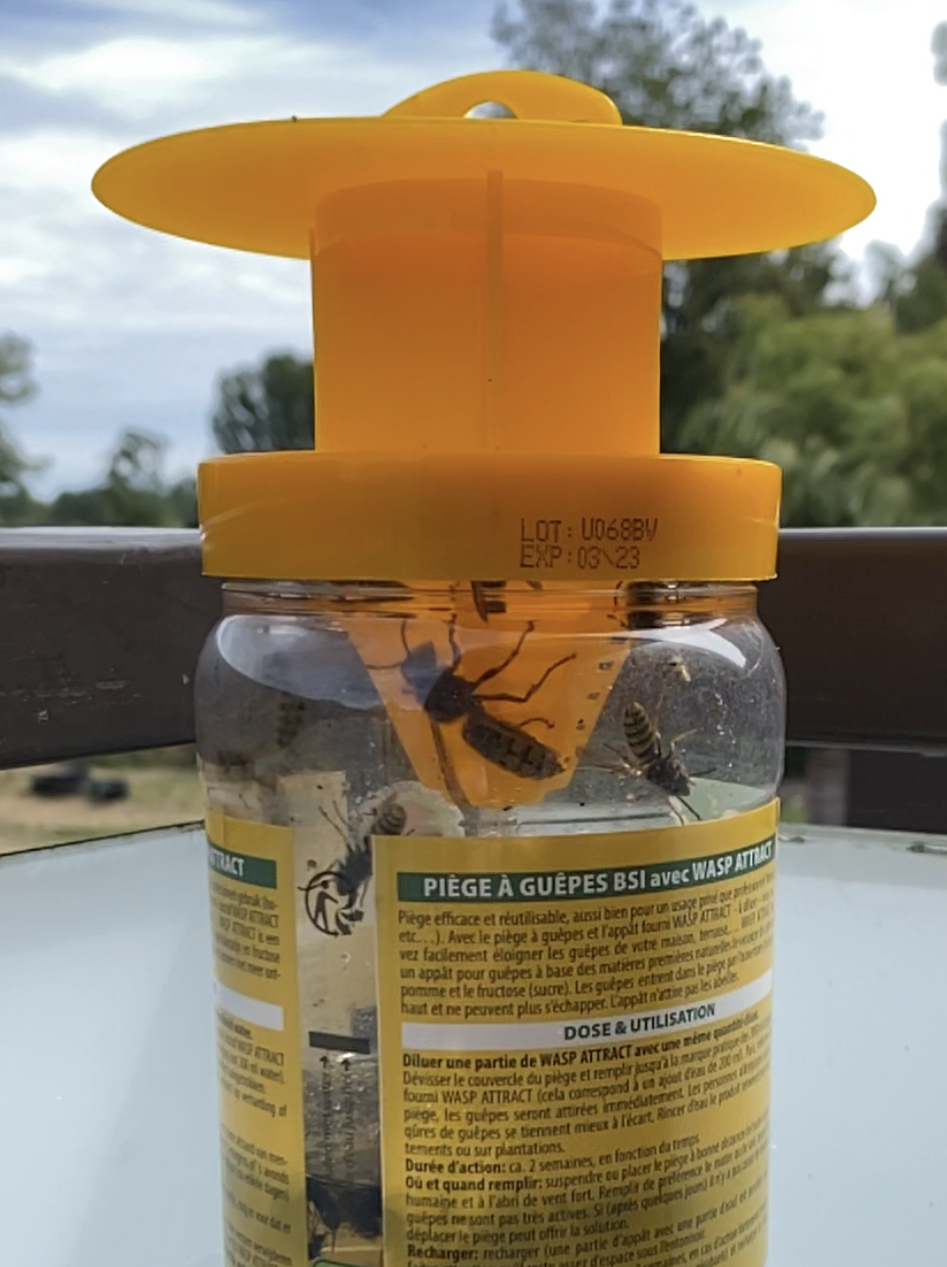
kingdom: Animalia
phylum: Arthropoda
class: Insecta
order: Hymenoptera
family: Vespidae
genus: Vespa
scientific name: Vespa crabro
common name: Hornet
